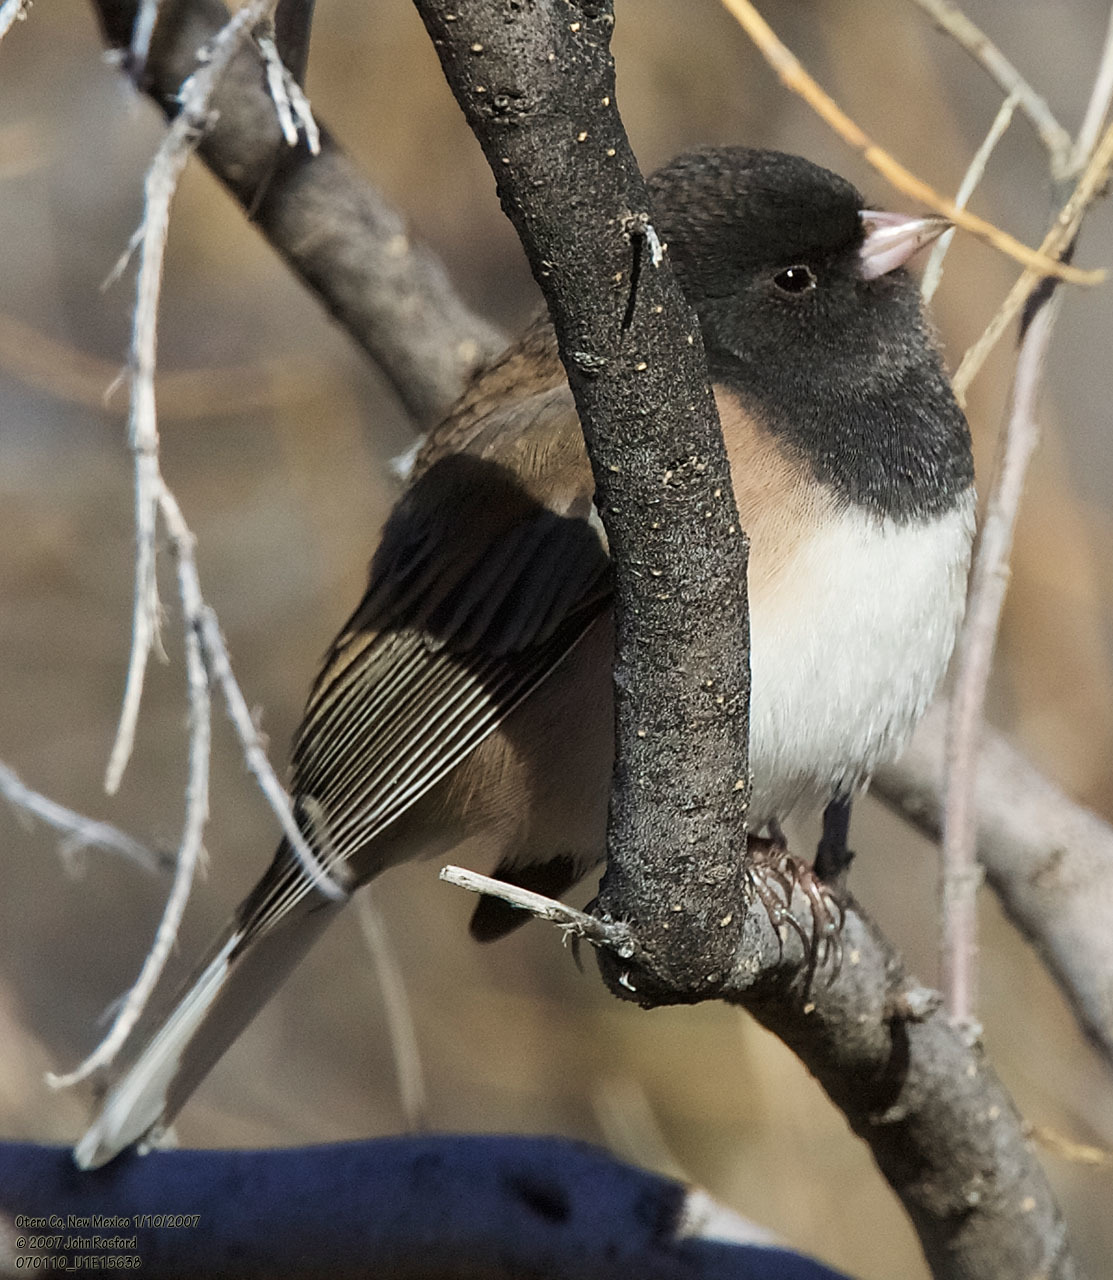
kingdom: Animalia
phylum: Chordata
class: Aves
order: Passeriformes
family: Passerellidae
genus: Junco
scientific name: Junco hyemalis
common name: Dark-eyed junco
